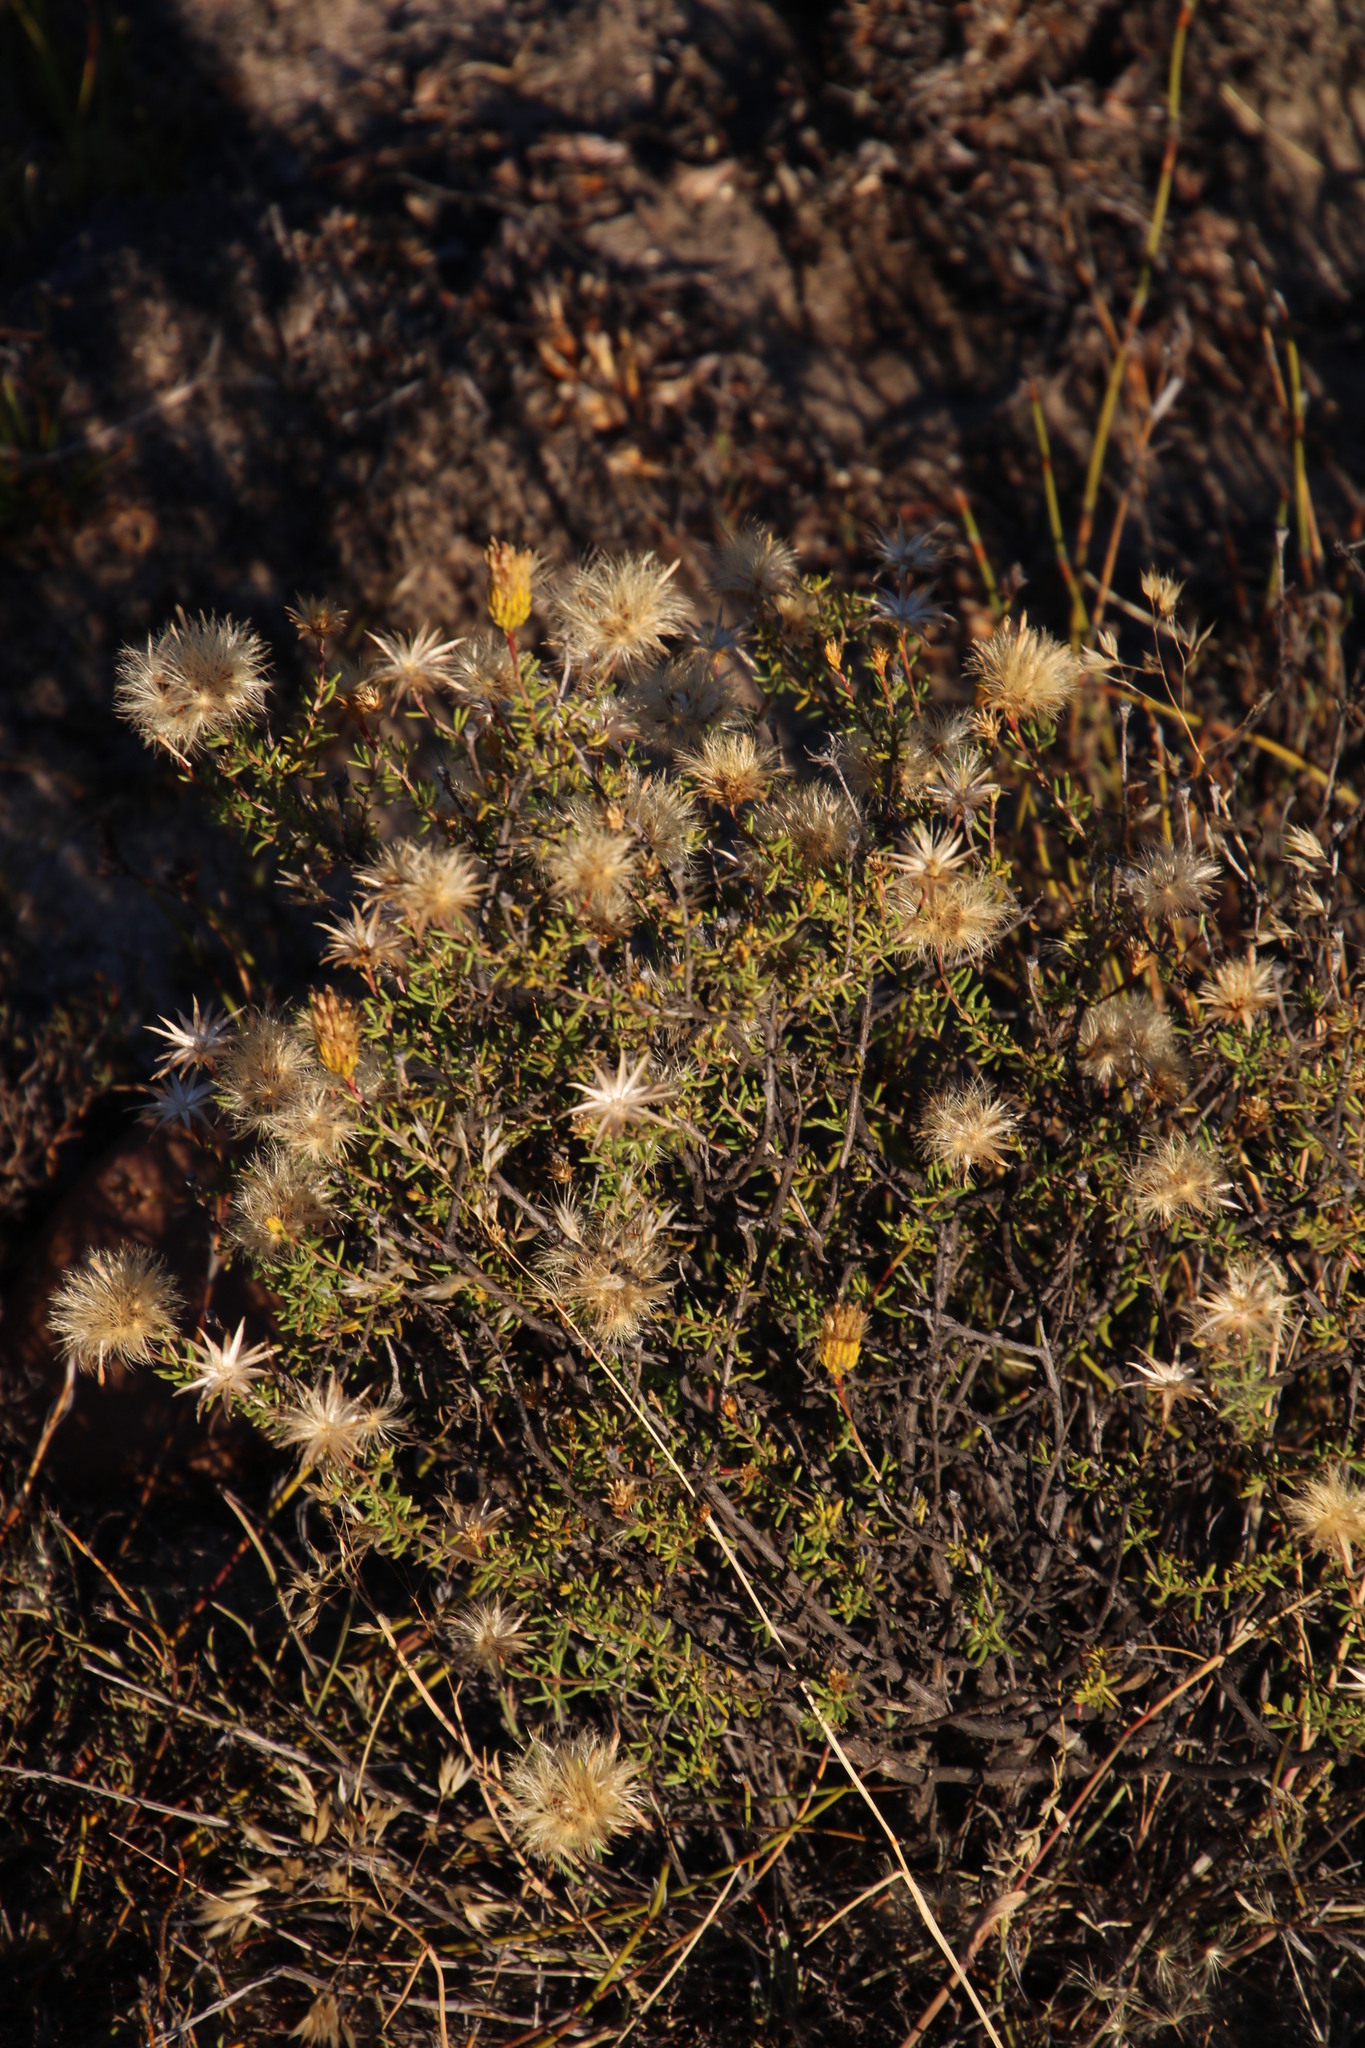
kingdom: Plantae
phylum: Tracheophyta
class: Magnoliopsida
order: Asterales
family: Asteraceae
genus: Pteronia
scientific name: Pteronia cederbergensis
